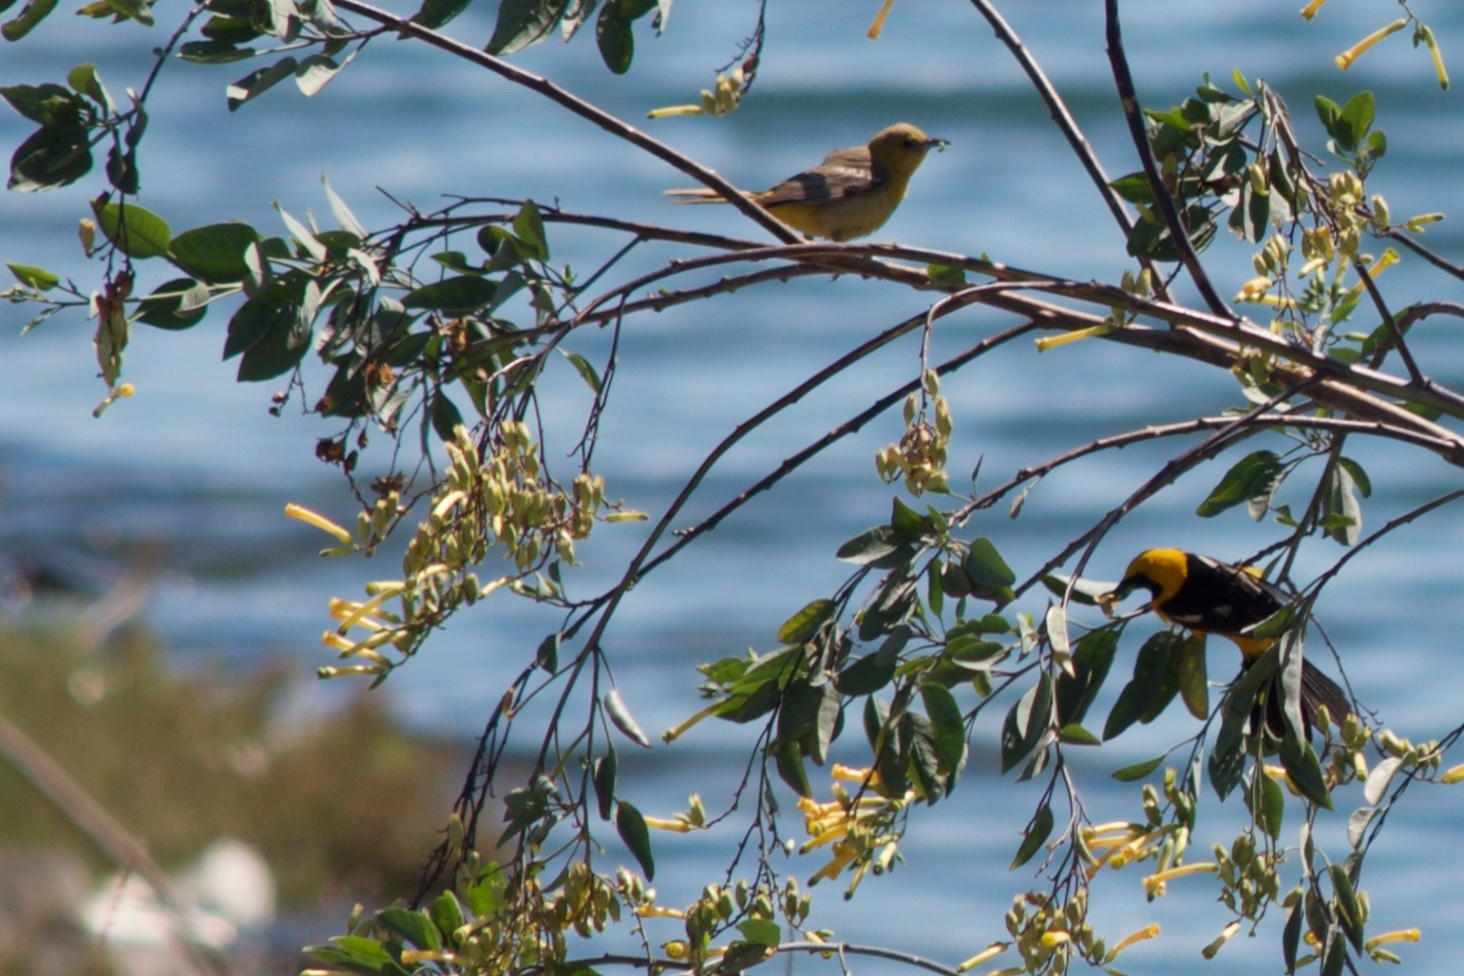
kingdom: Animalia
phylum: Chordata
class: Aves
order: Passeriformes
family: Icteridae
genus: Icterus
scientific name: Icterus cucullatus
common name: Hooded oriole
